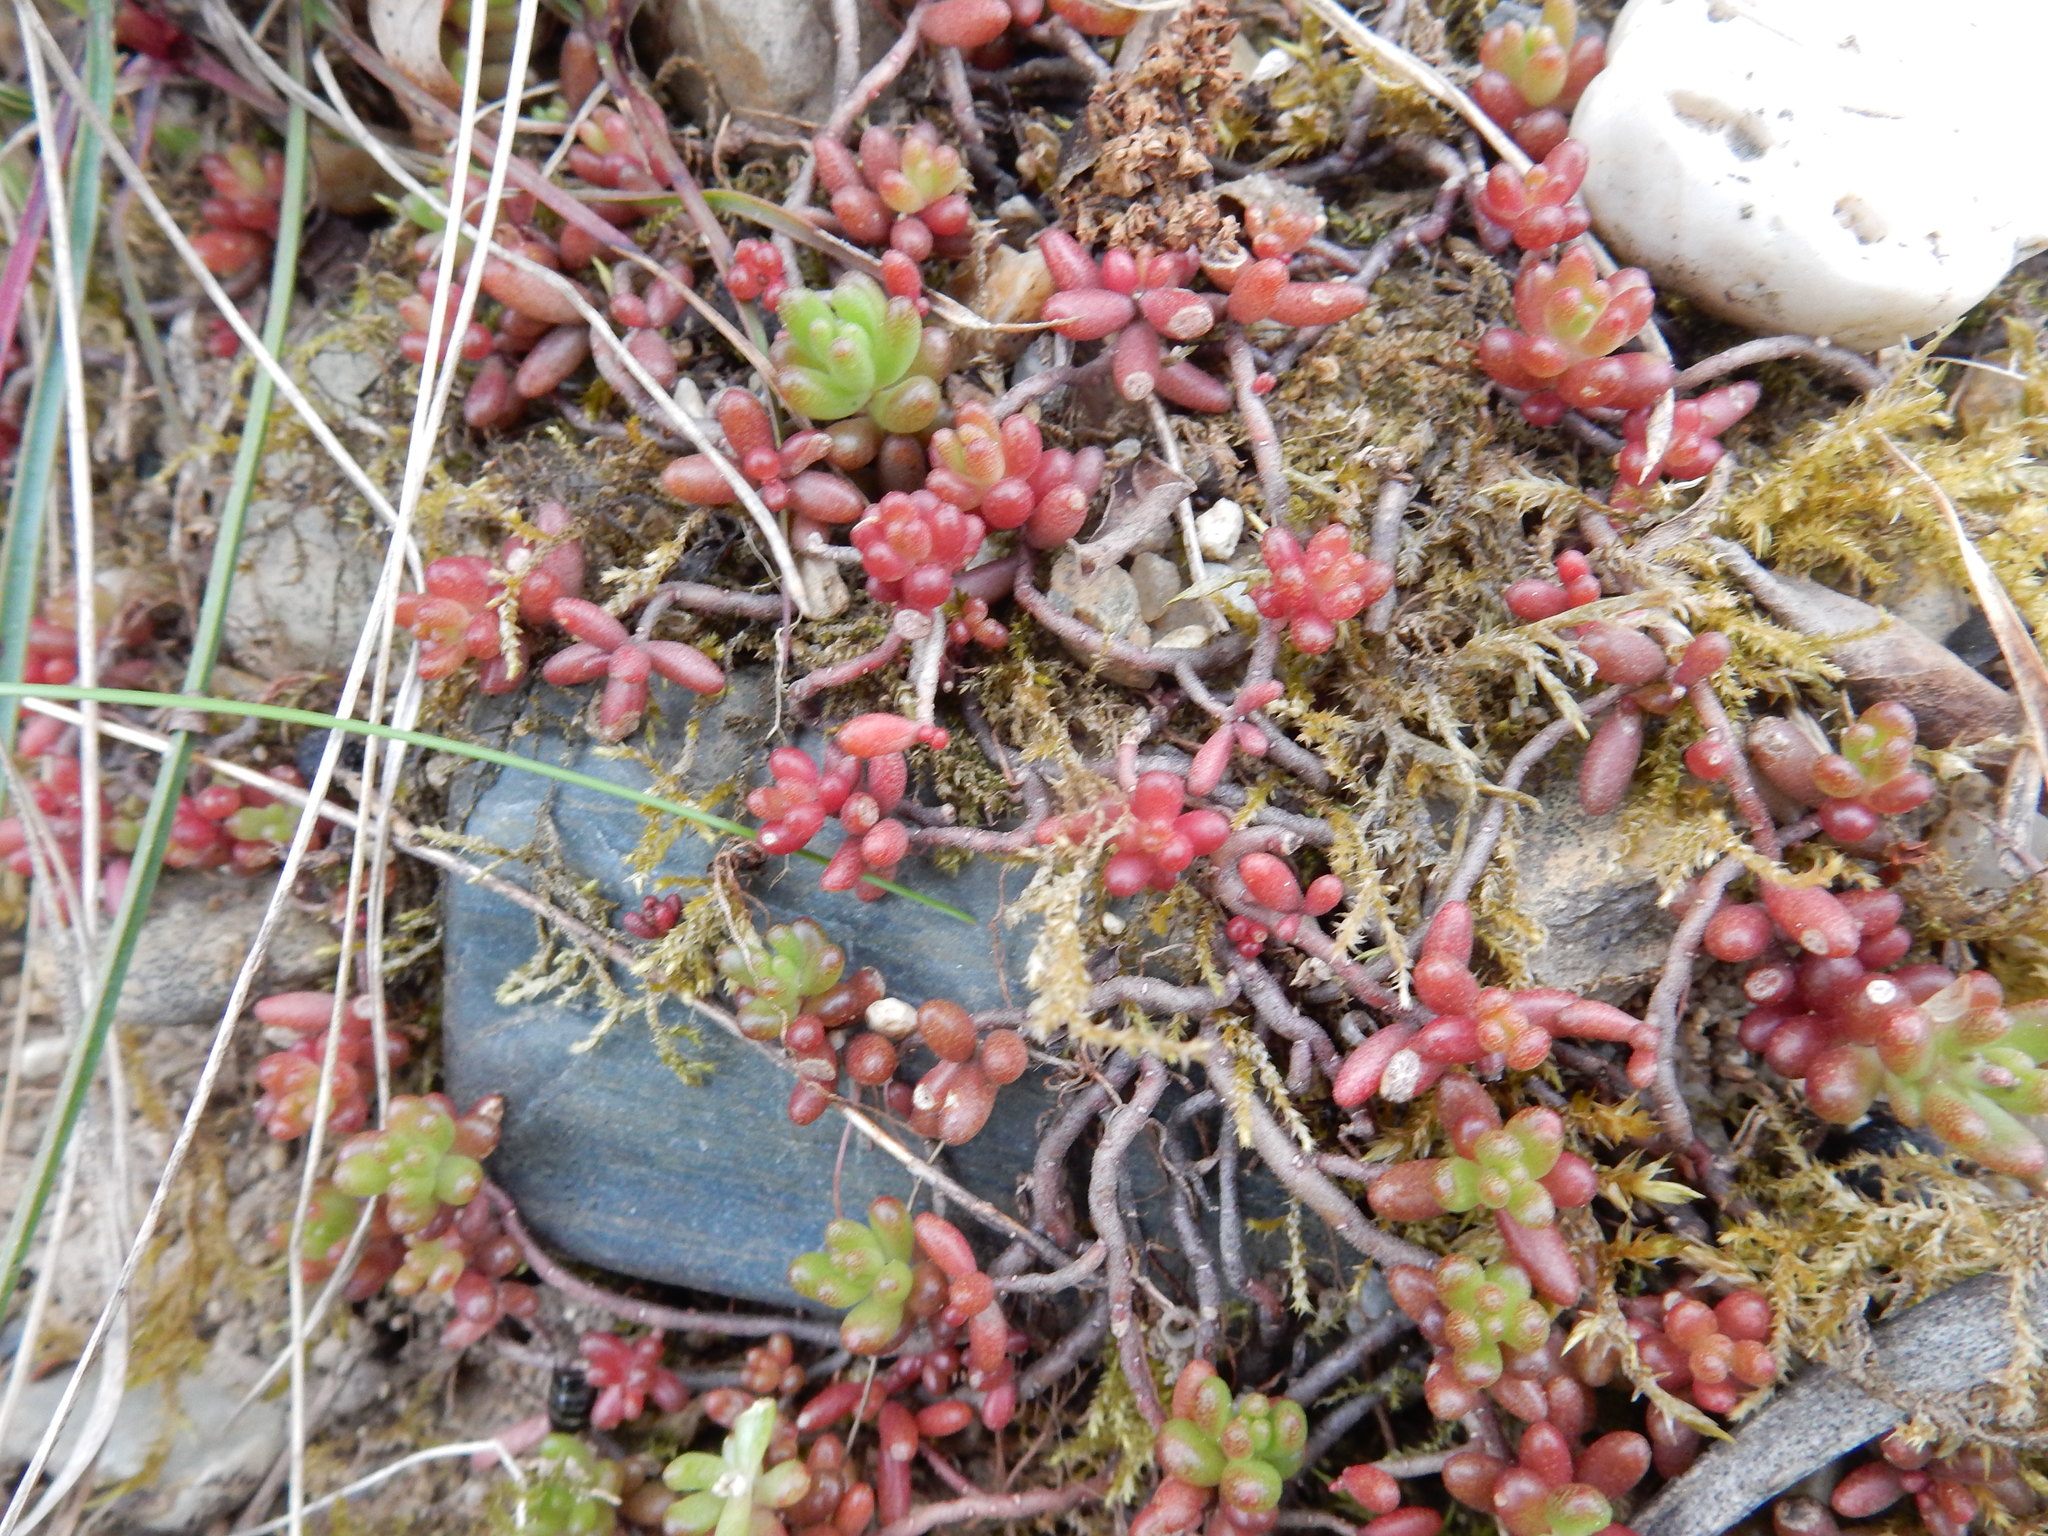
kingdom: Plantae
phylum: Tracheophyta
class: Magnoliopsida
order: Saxifragales
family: Crassulaceae
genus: Sedum
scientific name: Sedum album
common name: White stonecrop
